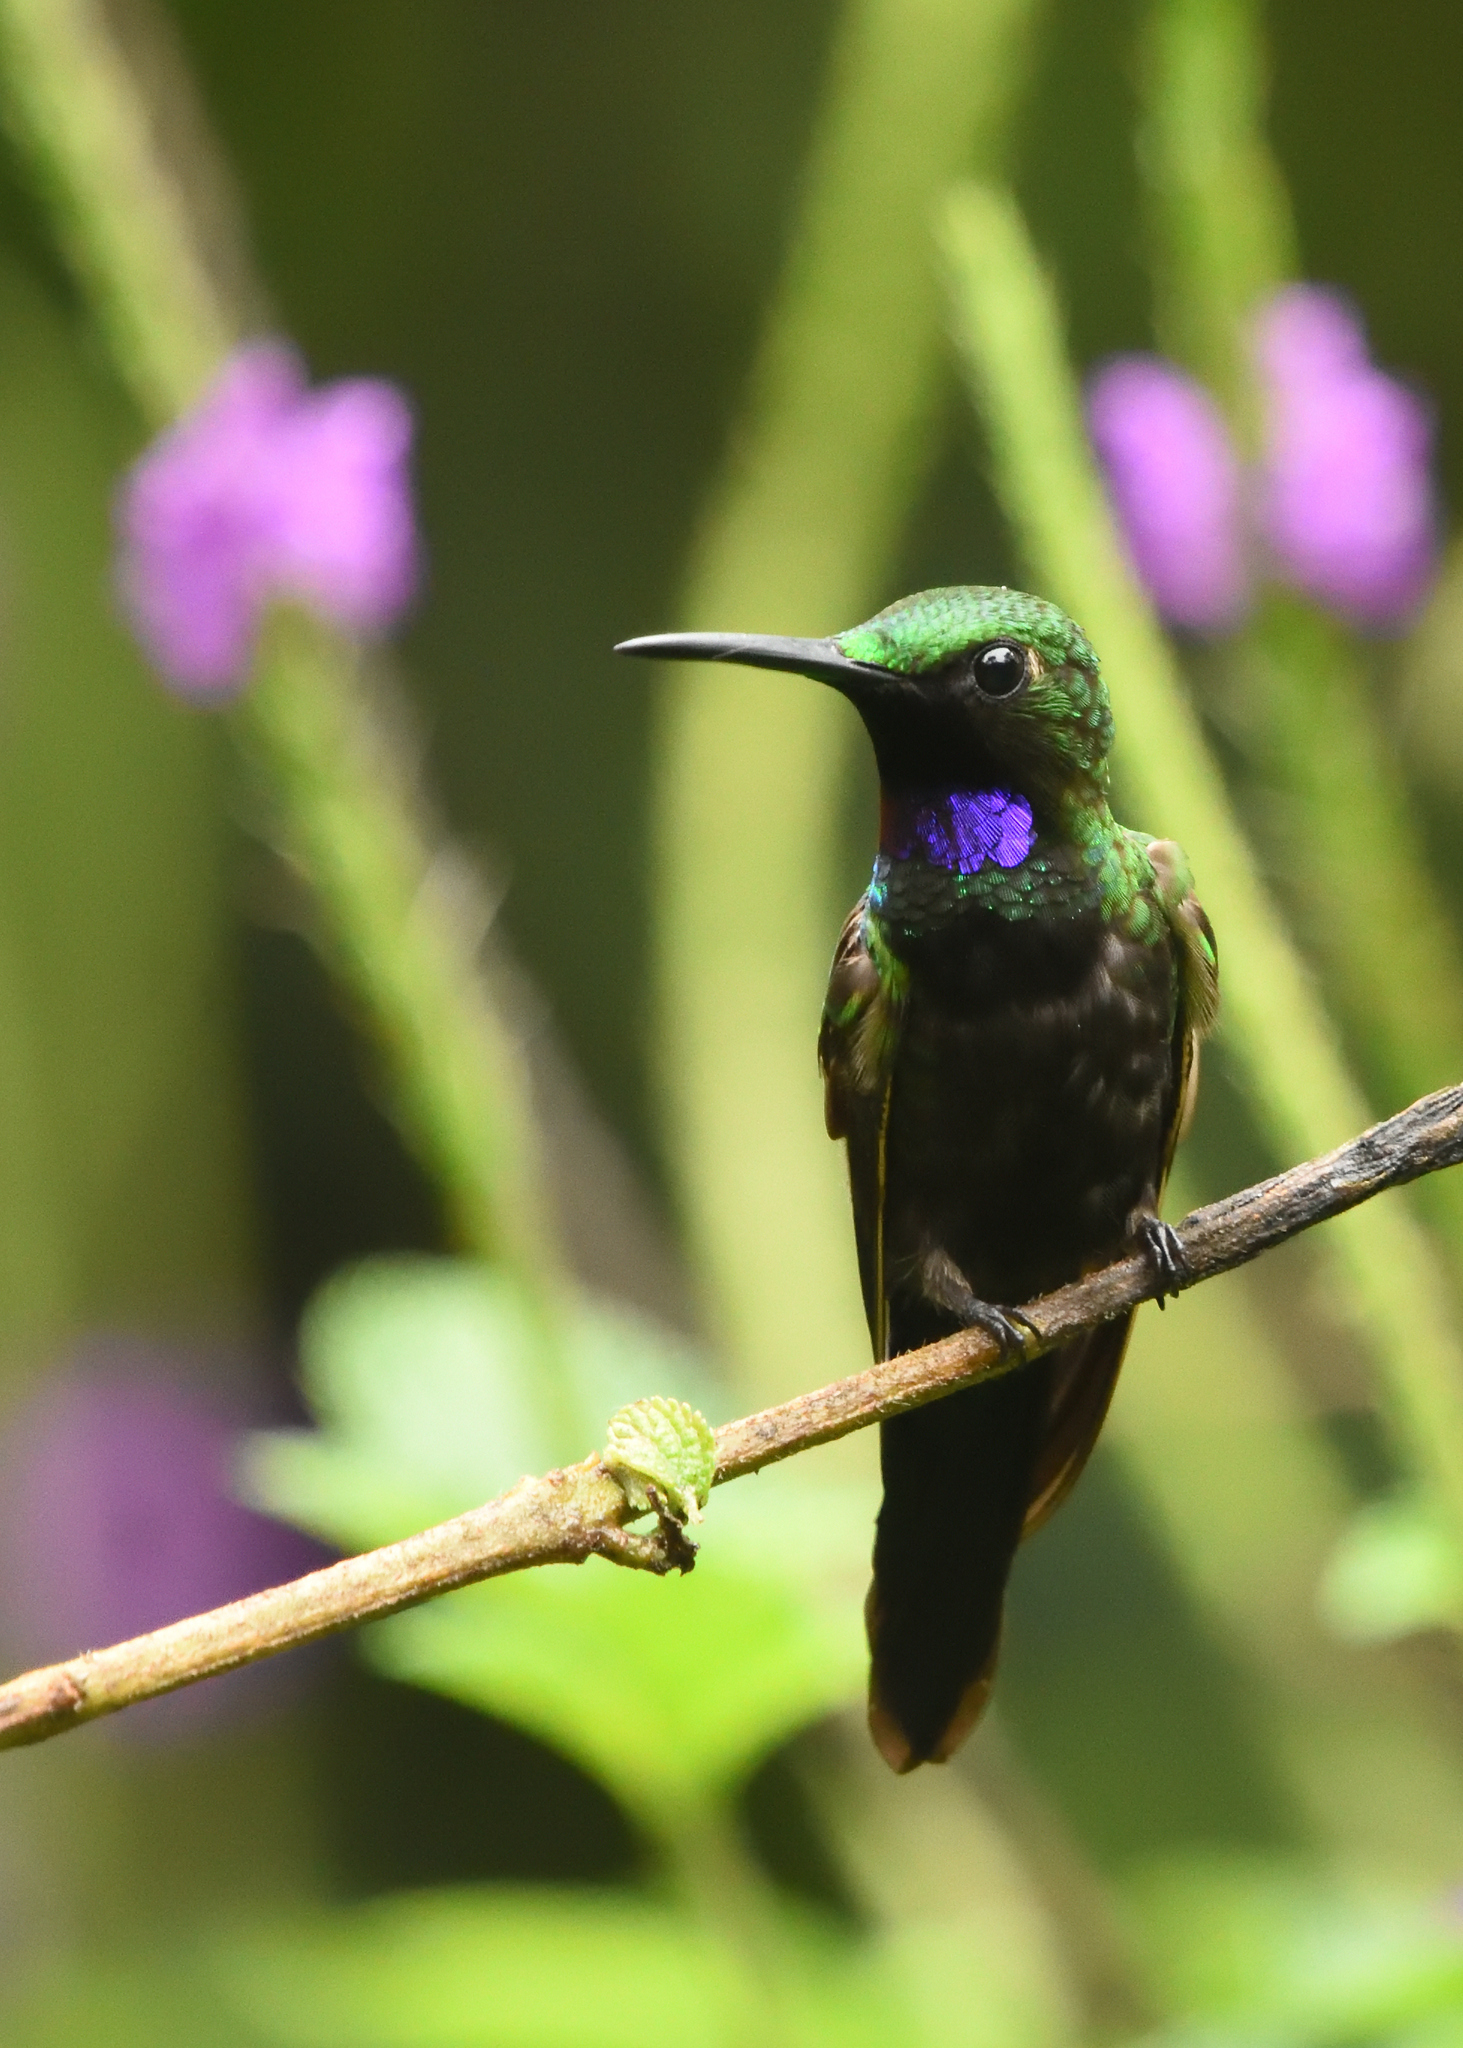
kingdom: Animalia
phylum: Chordata
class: Aves
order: Apodiformes
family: Trochilidae
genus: Heliodoxa
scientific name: Heliodoxa schreibersii
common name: Black-throated brilliant
